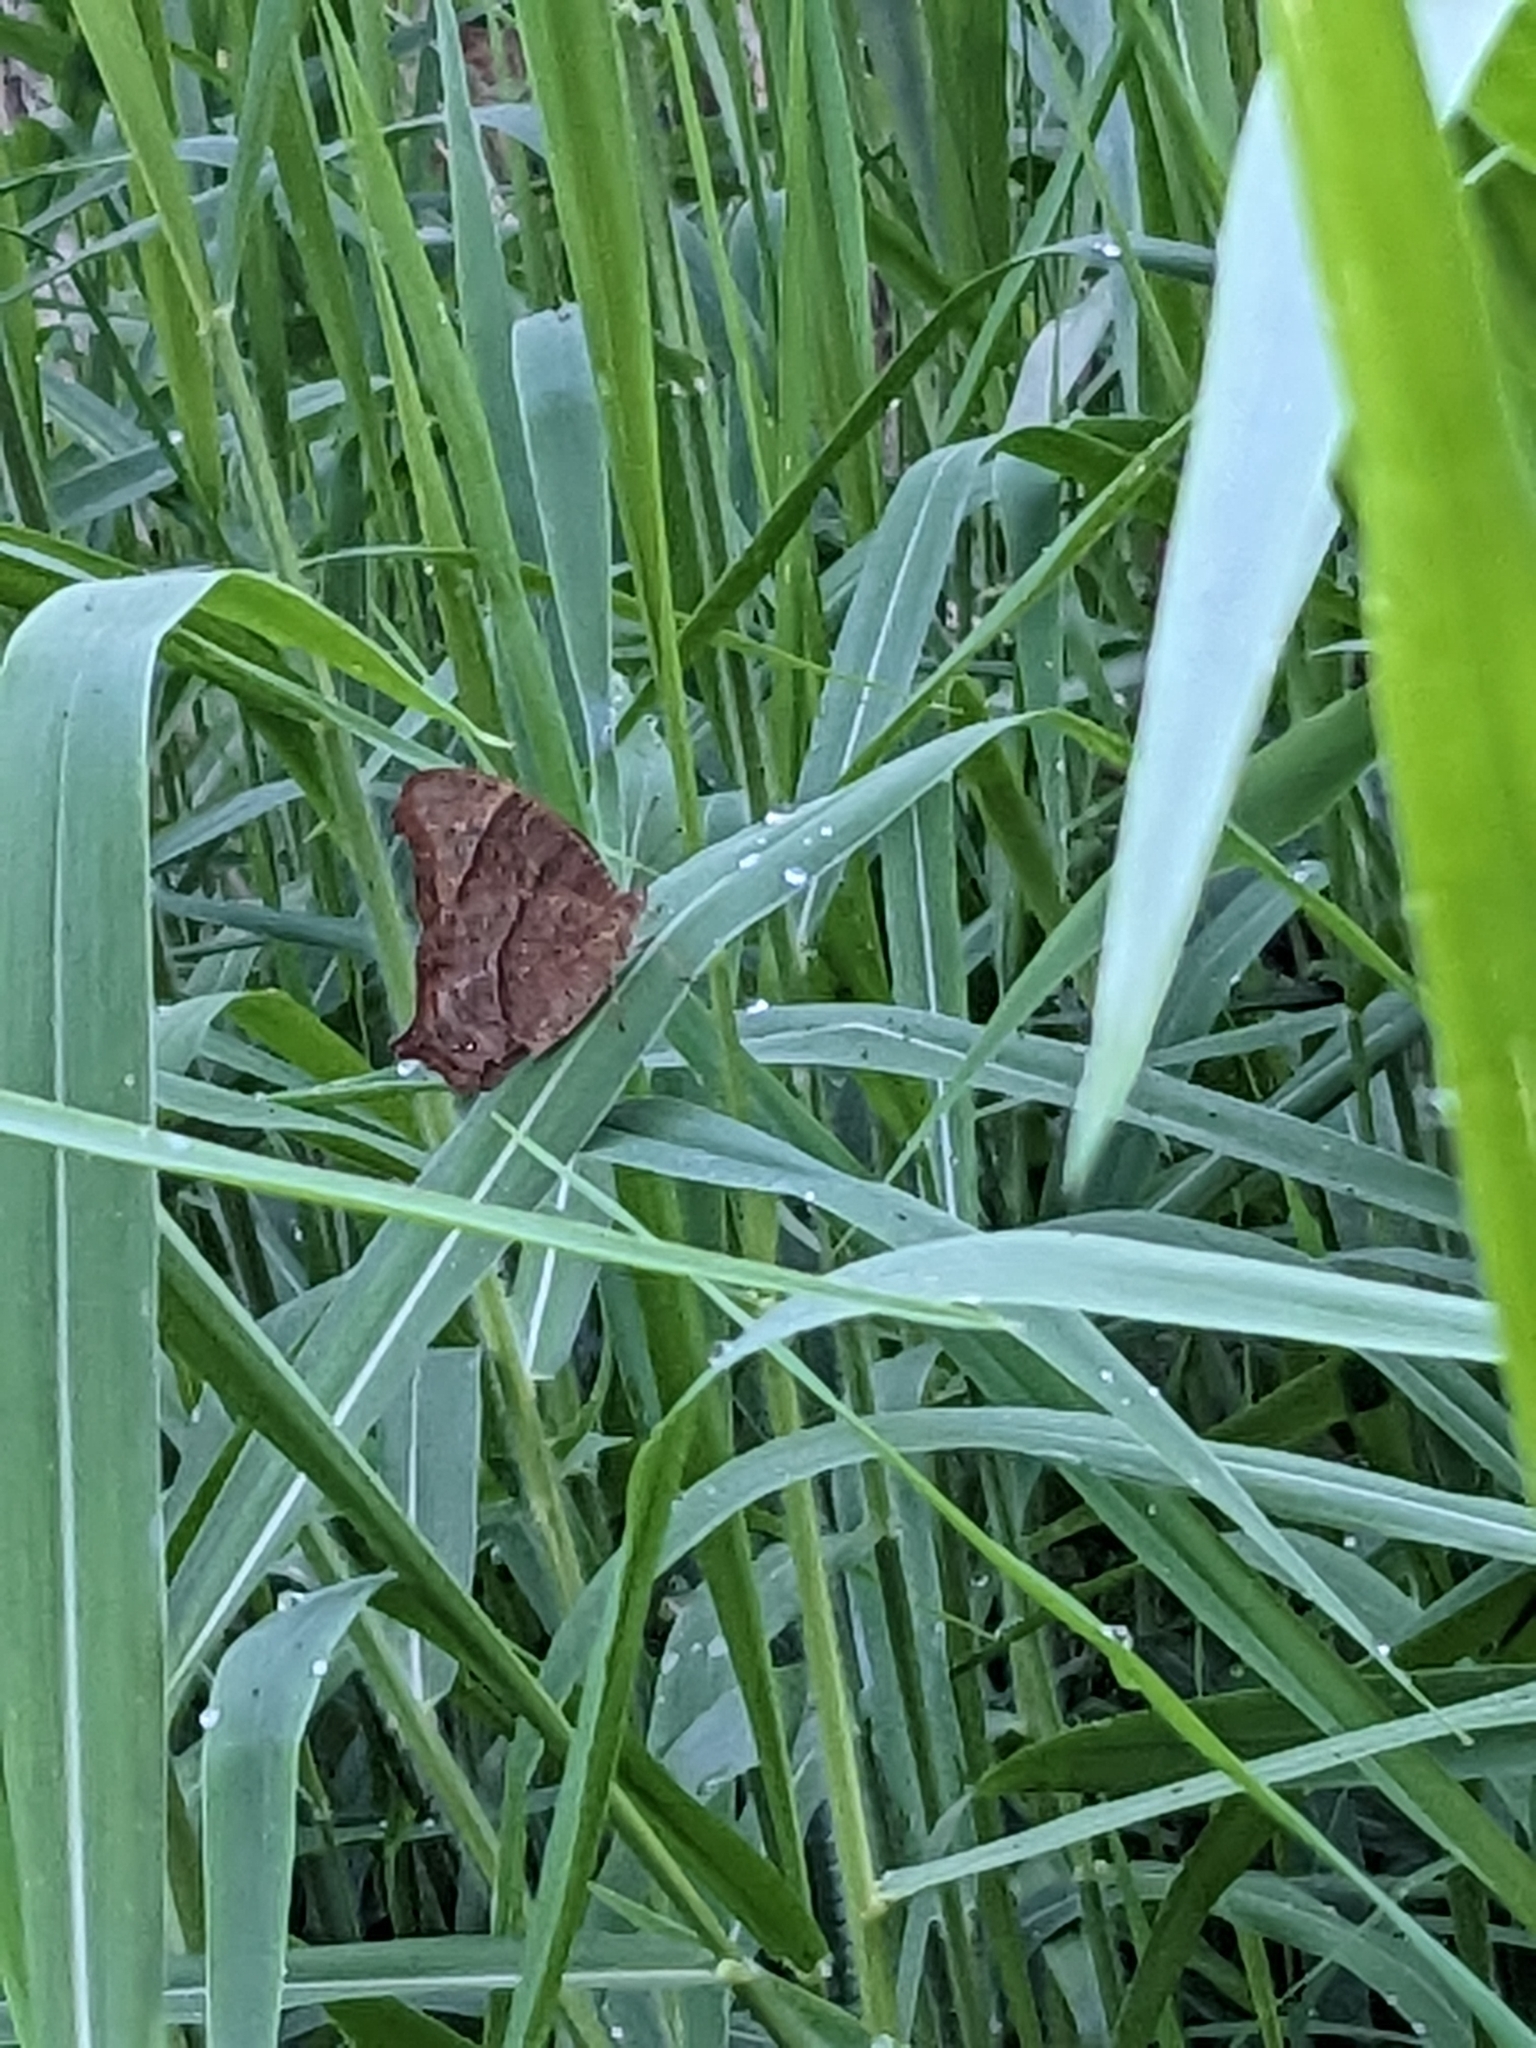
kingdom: Animalia
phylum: Arthropoda
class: Insecta
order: Lepidoptera
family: Nymphalidae
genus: Melanitis
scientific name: Melanitis leda
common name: Twilight brown
